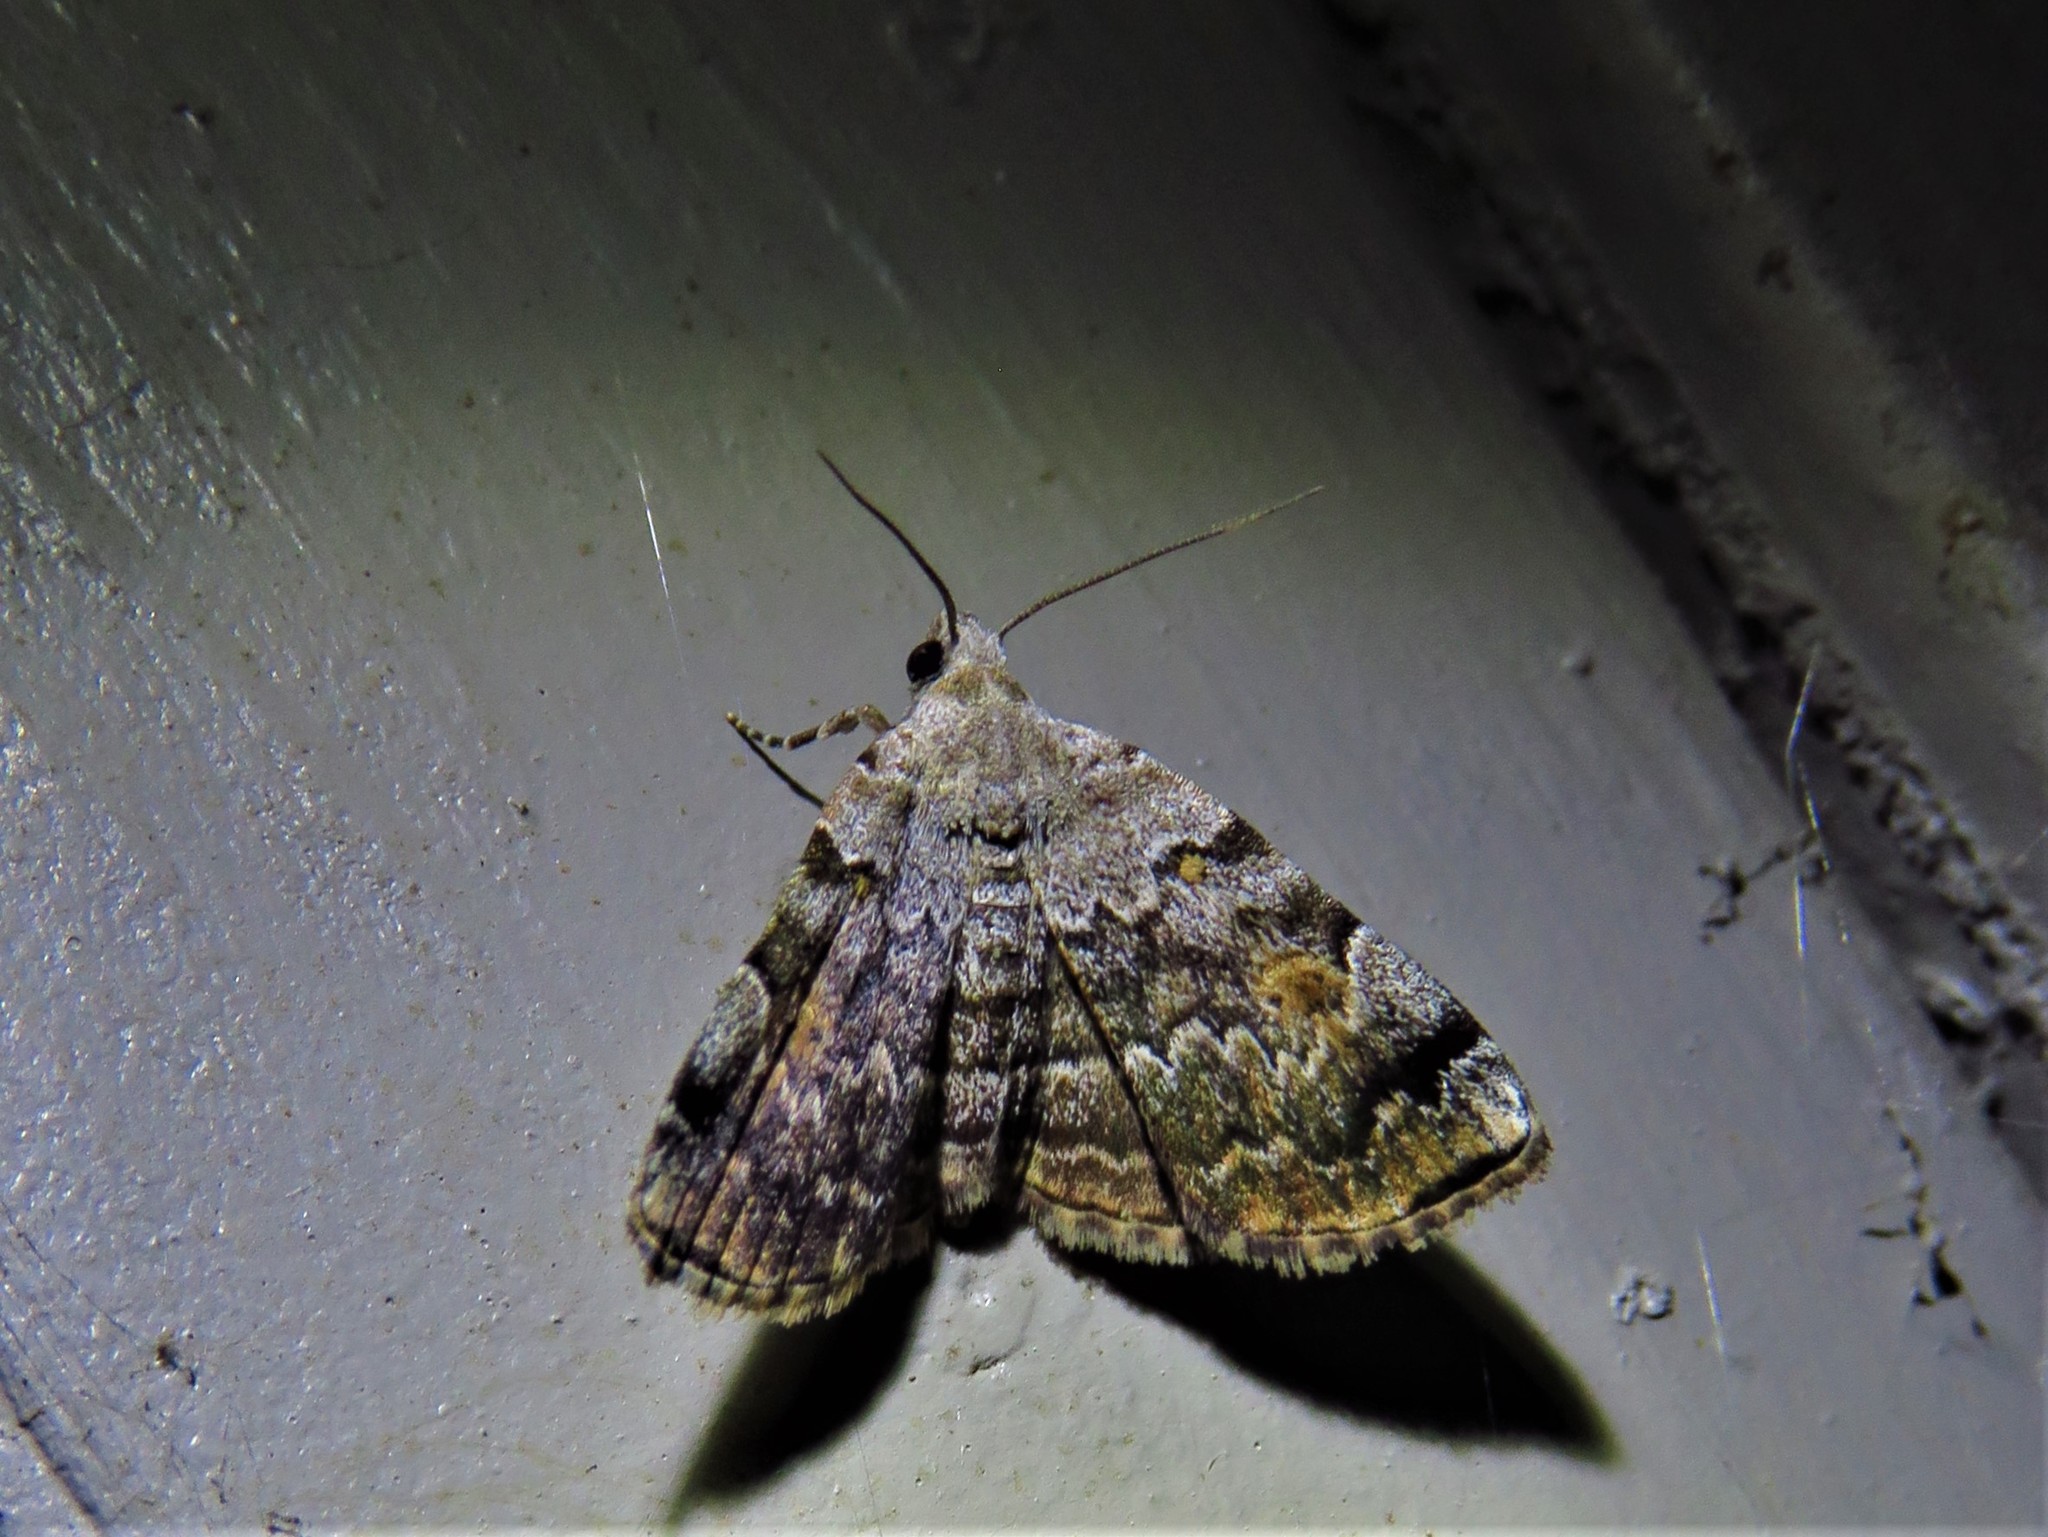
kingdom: Animalia
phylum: Arthropoda
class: Insecta
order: Lepidoptera
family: Erebidae
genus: Idia
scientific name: Idia americalis
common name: American idia moth
